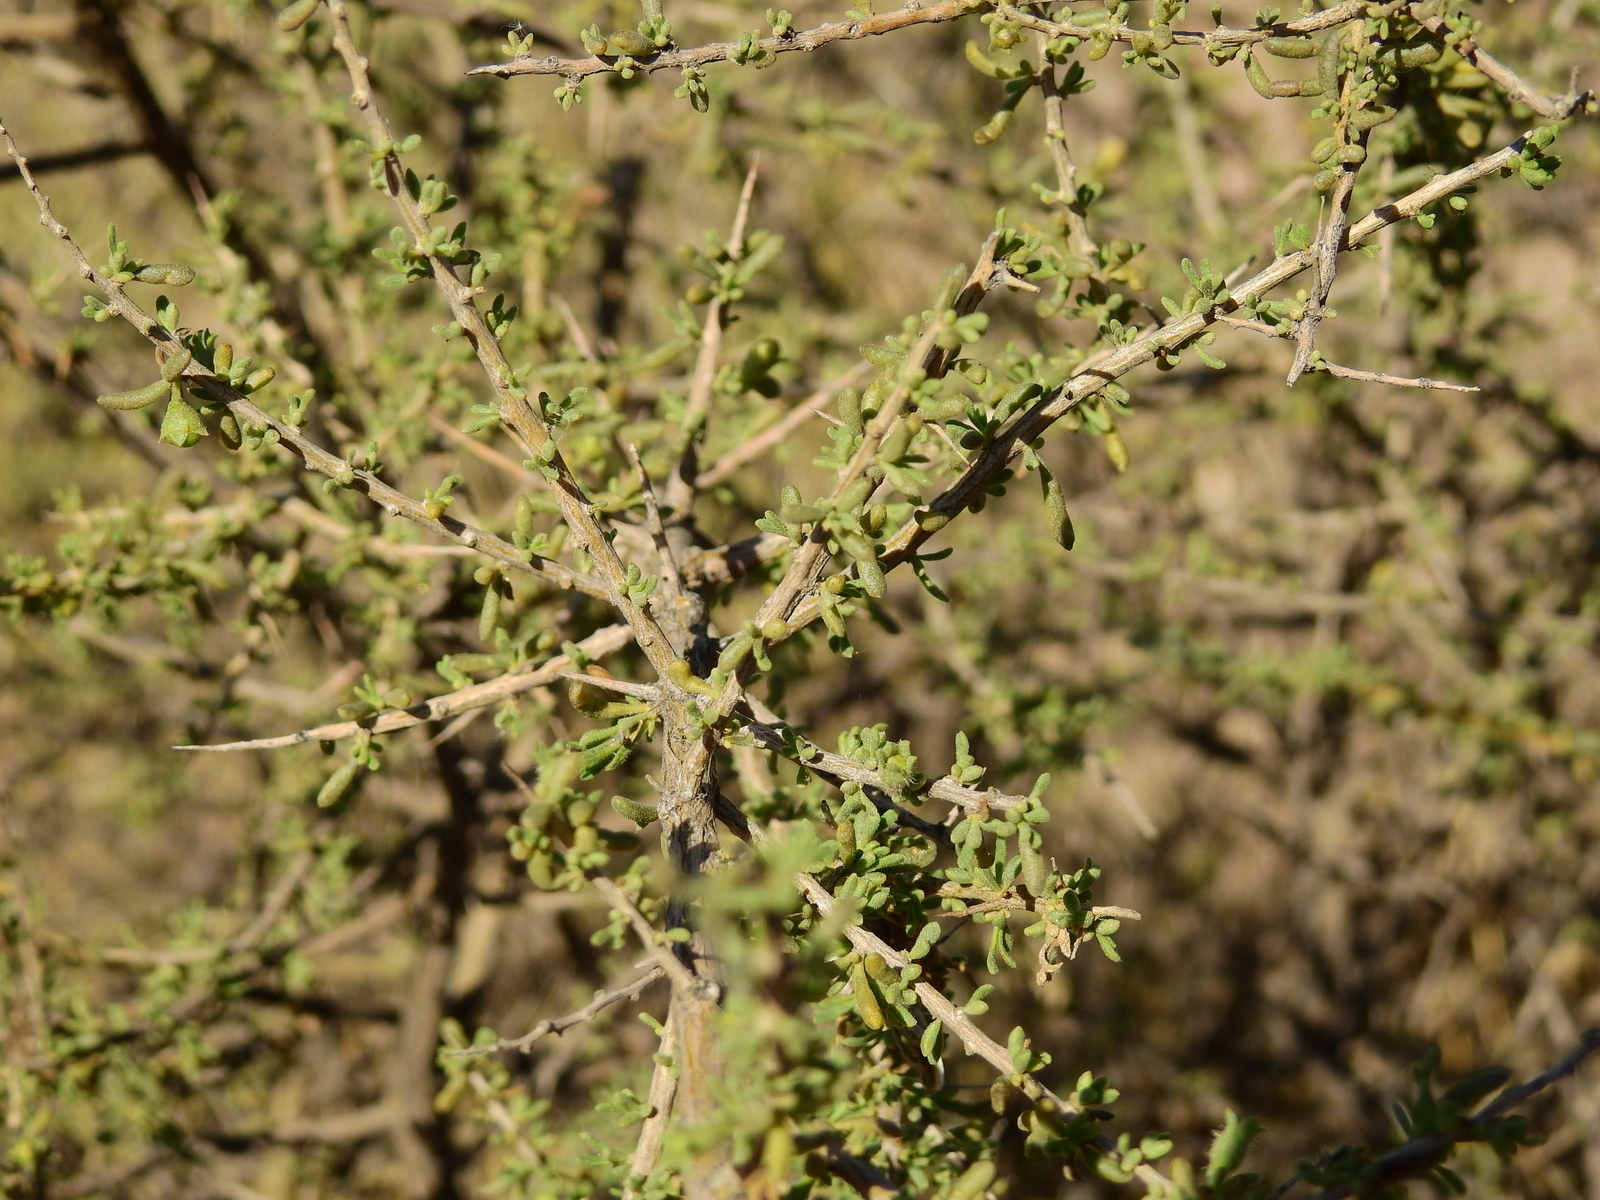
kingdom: Plantae
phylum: Tracheophyta
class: Magnoliopsida
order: Solanales
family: Solanaceae
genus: Lycium
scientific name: Lycium tenuispinosum
